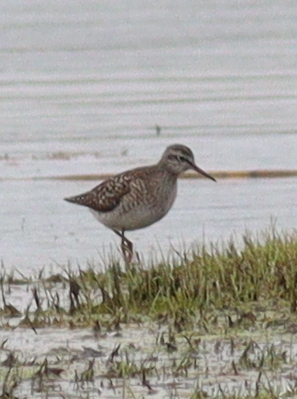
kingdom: Animalia
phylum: Chordata
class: Aves
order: Charadriiformes
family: Scolopacidae
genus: Tringa
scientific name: Tringa glareola
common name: Wood sandpiper
